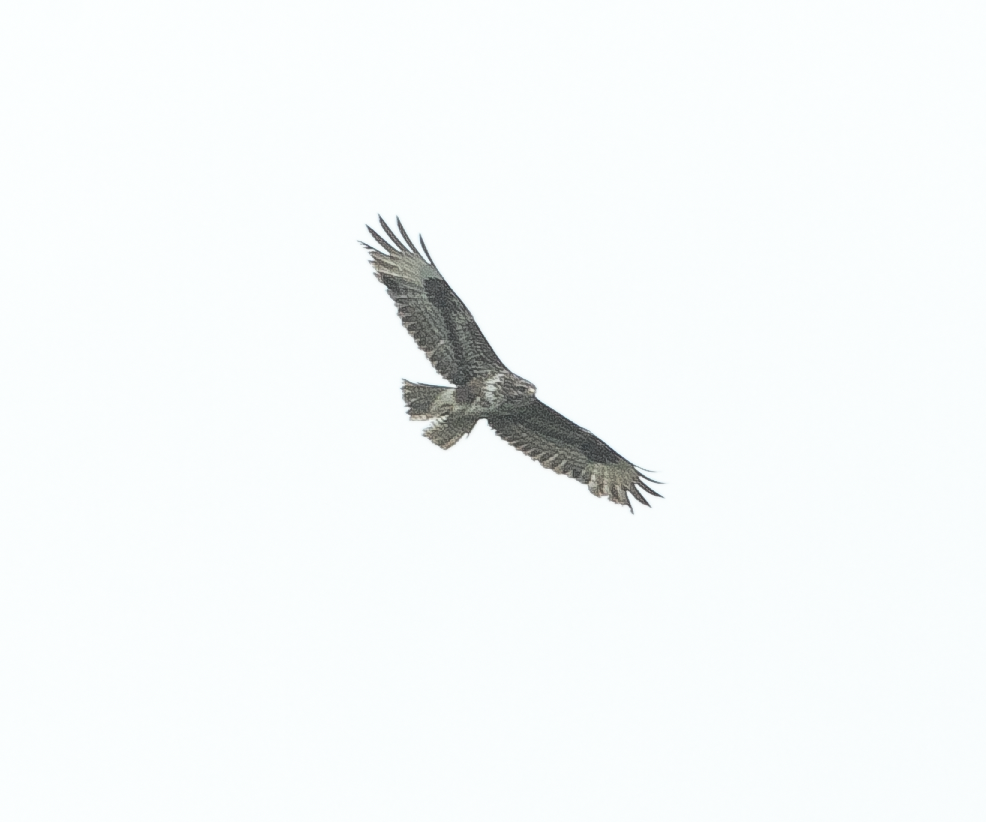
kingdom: Animalia
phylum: Chordata
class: Aves
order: Accipitriformes
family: Accipitridae
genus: Buteo
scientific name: Buteo buteo
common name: Common buzzard
